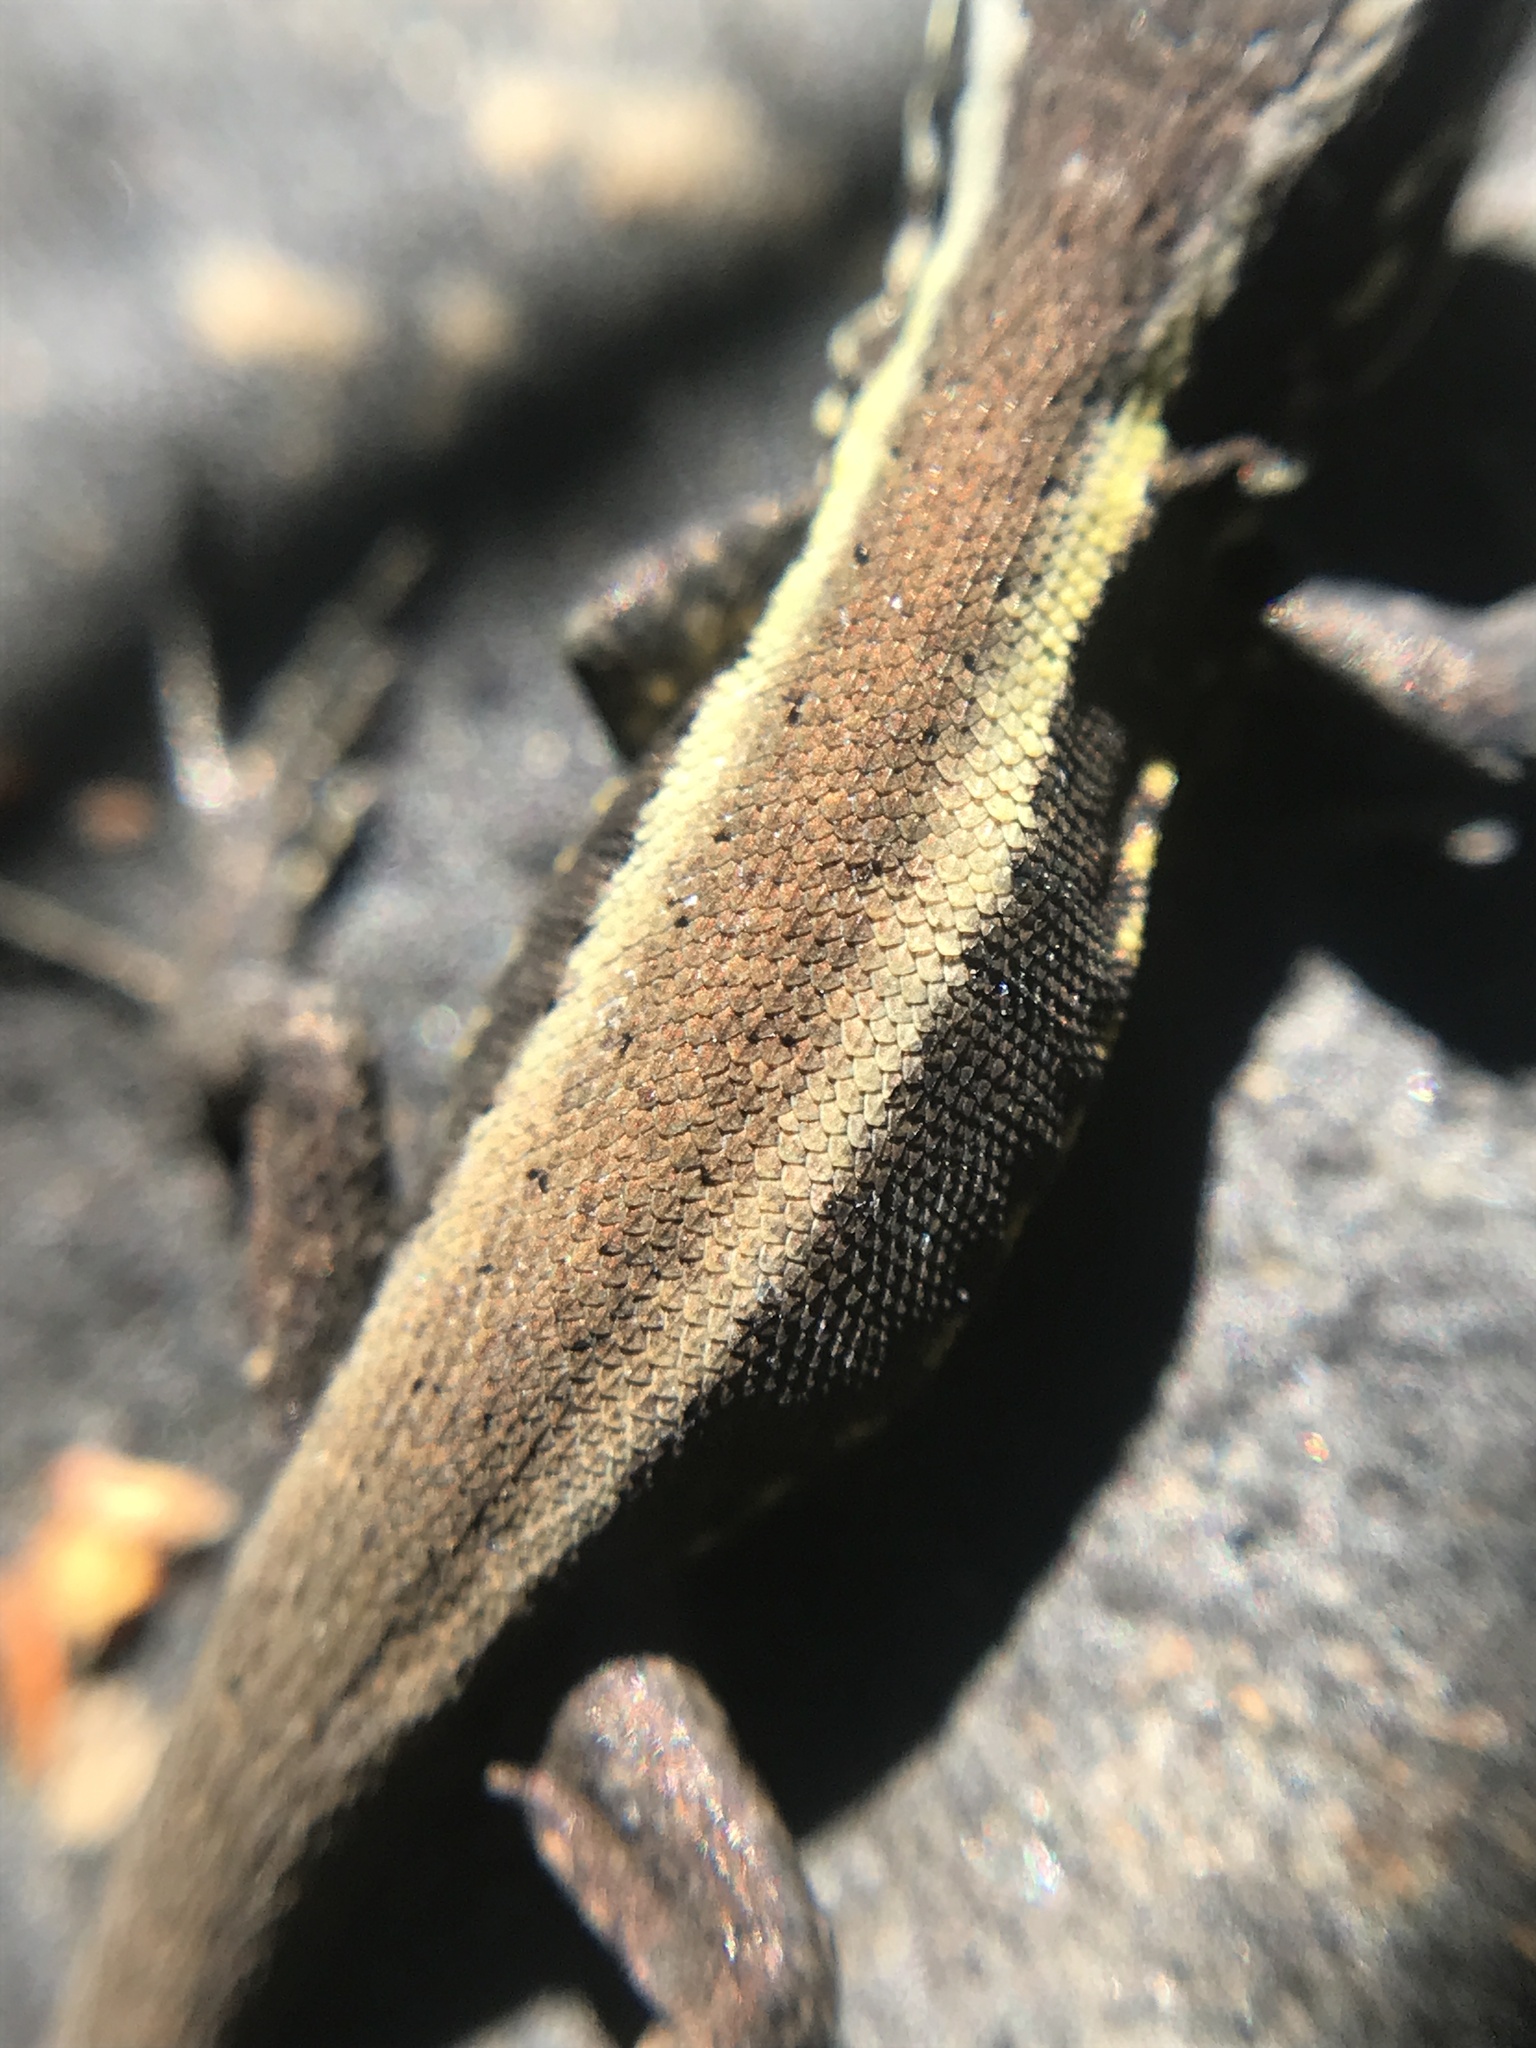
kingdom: Animalia
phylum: Chordata
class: Squamata
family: Liolaemidae
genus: Liolaemus
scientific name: Liolaemus pictus
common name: Painted tree iguana
